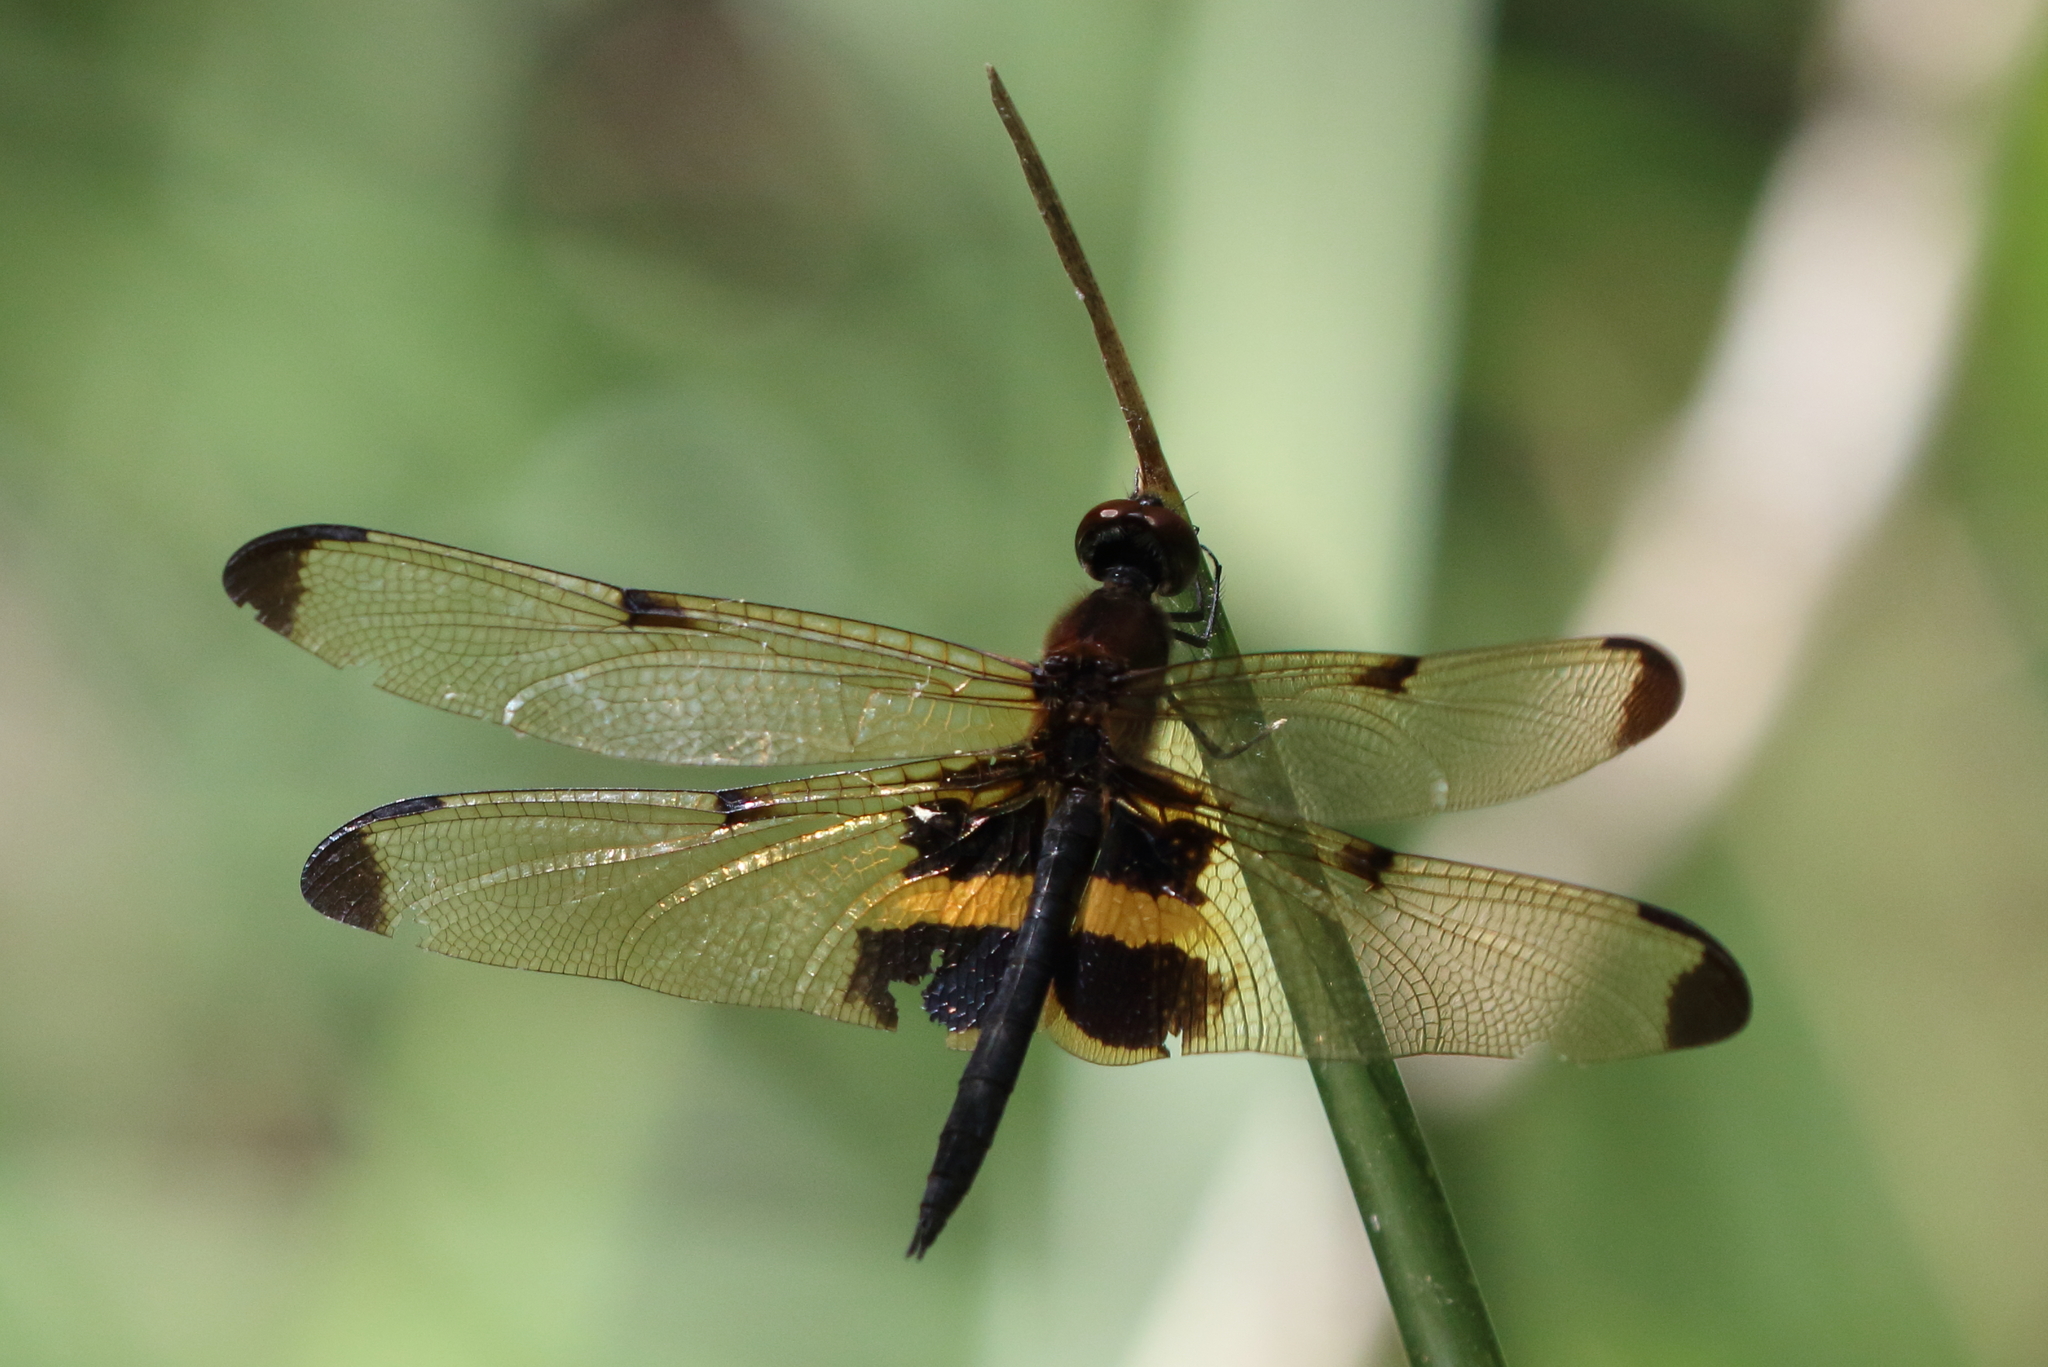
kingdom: Animalia
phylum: Arthropoda
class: Insecta
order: Odonata
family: Libellulidae
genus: Rhyothemis
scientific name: Rhyothemis phyllis
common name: Yellow-barred flutterer
